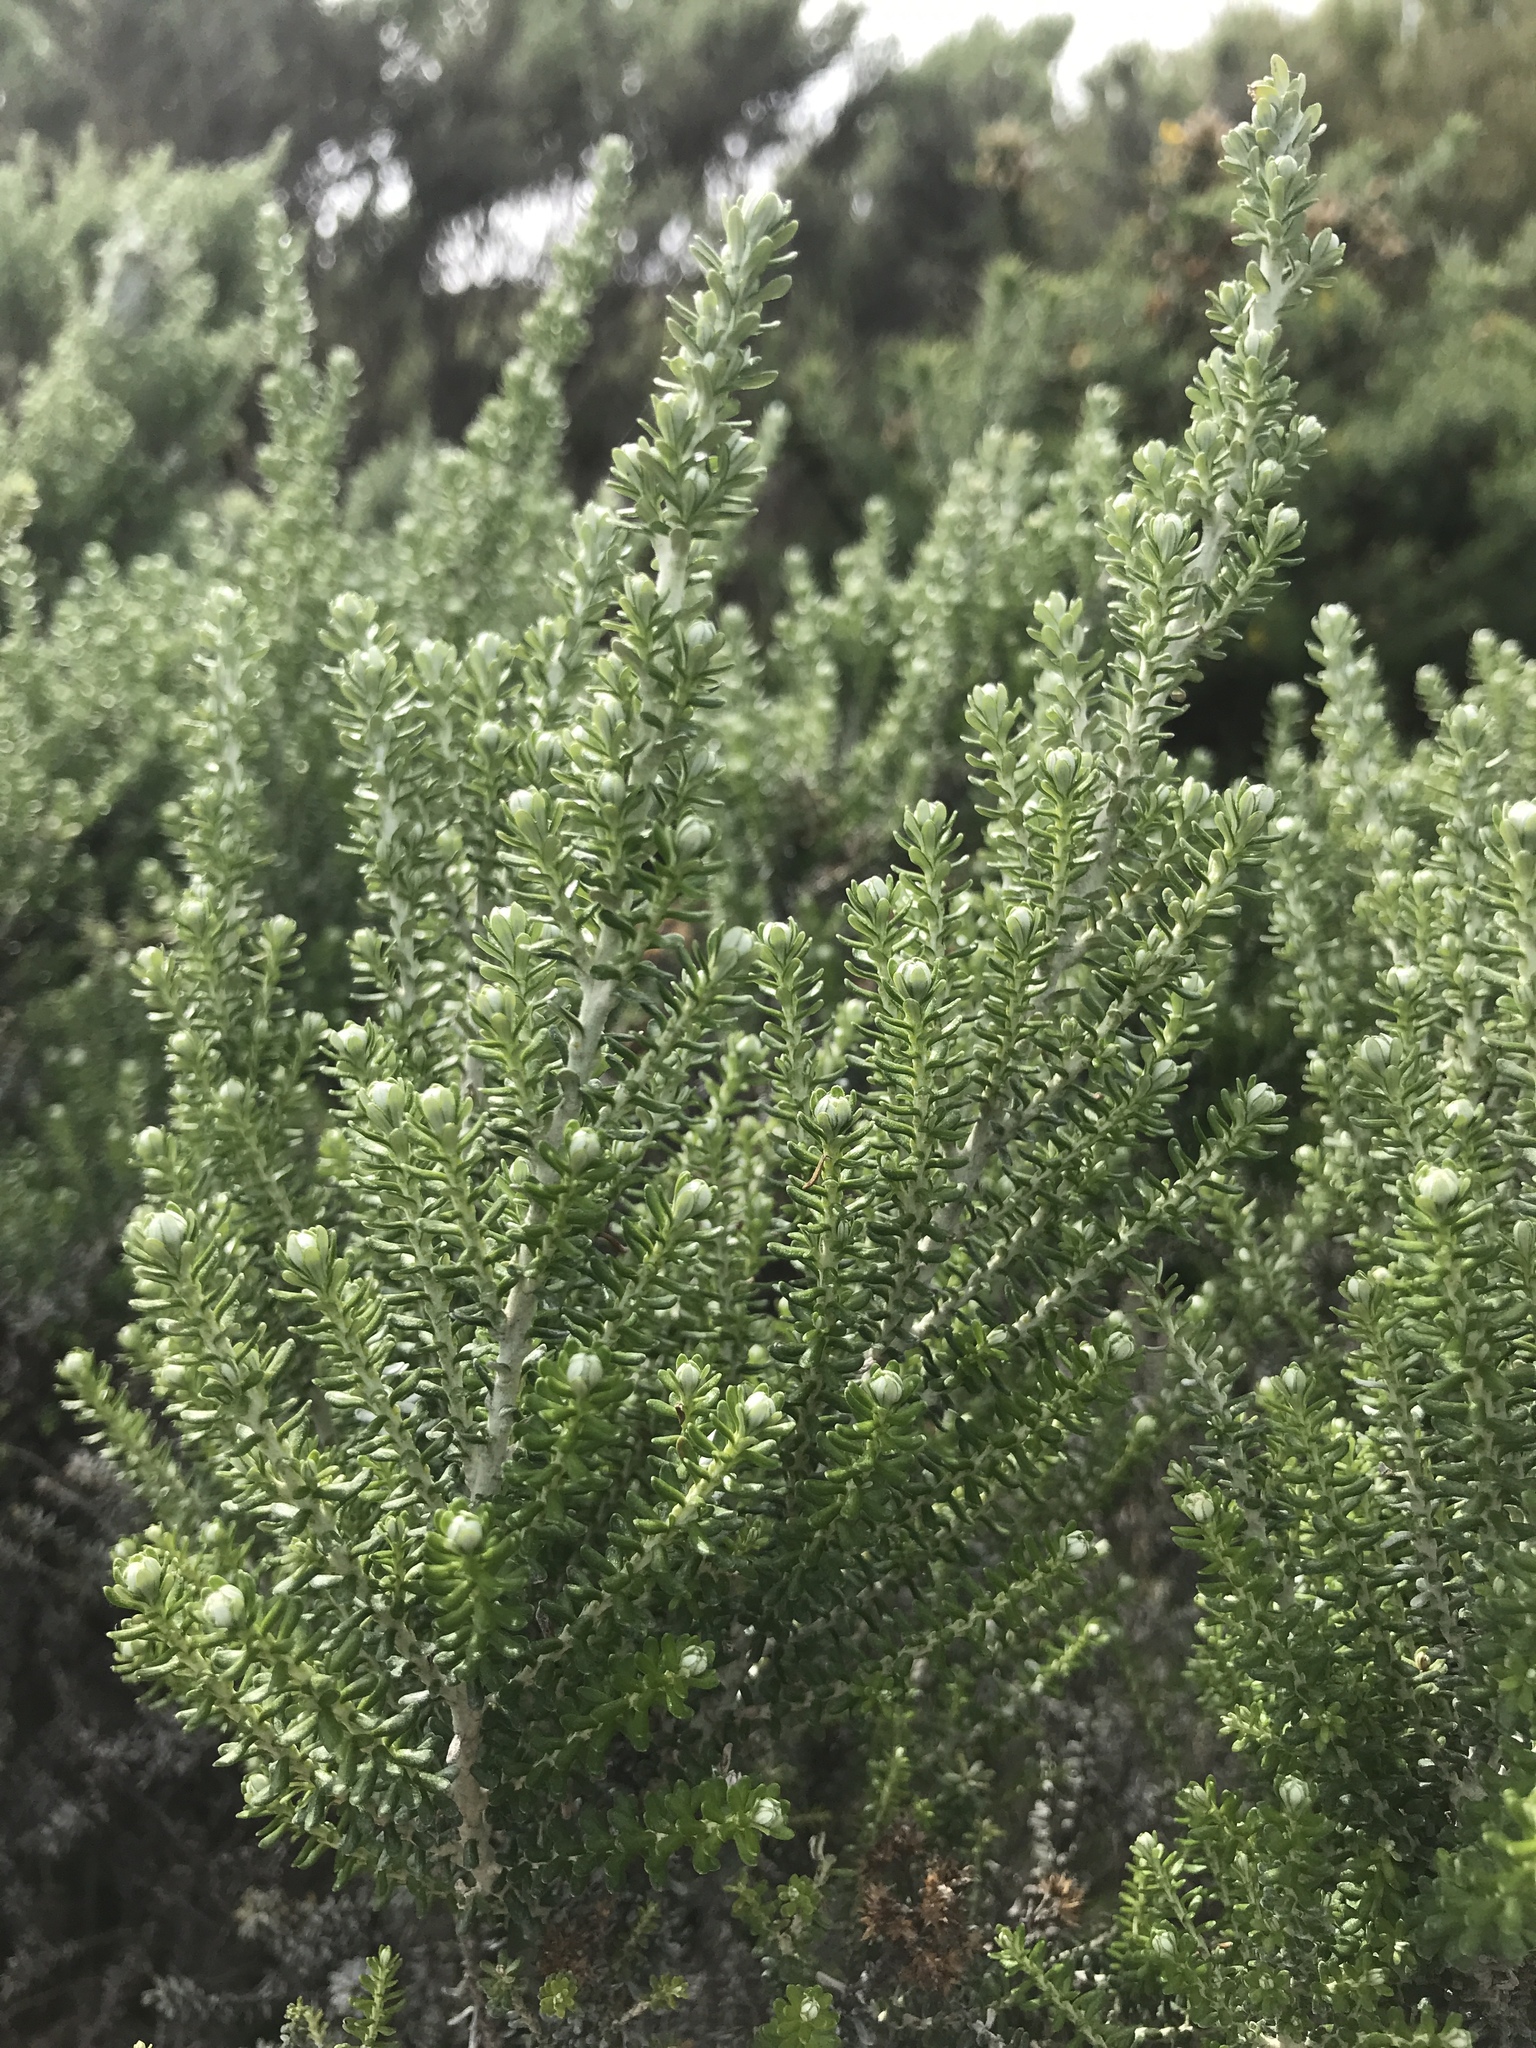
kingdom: Plantae
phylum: Tracheophyta
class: Magnoliopsida
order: Asterales
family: Asteraceae
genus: Ozothamnus
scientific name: Ozothamnus leptophyllus
